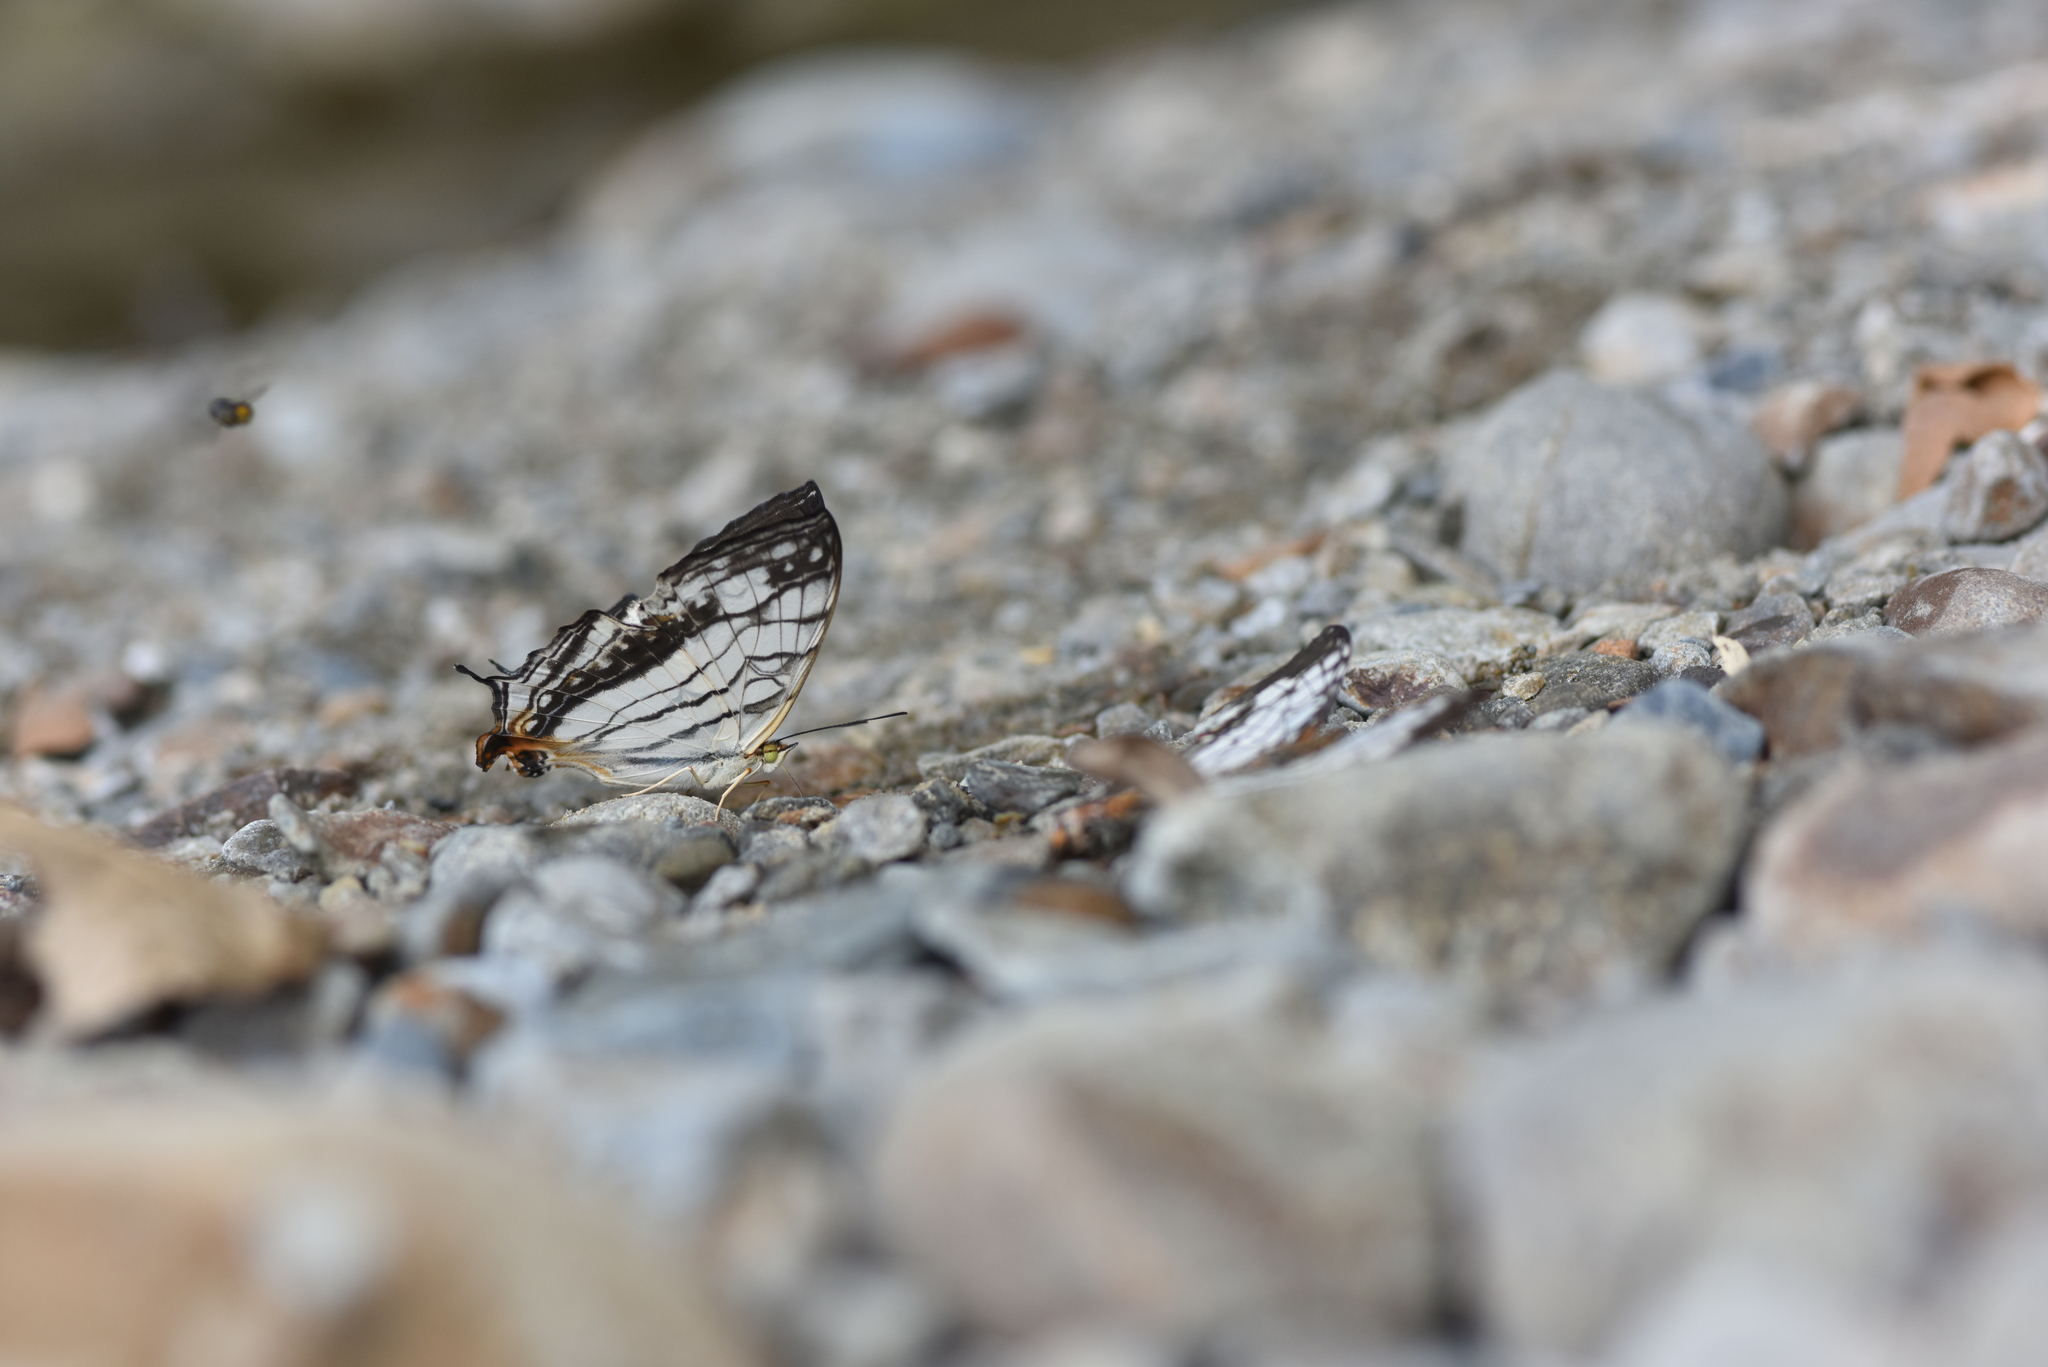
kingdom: Animalia
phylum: Arthropoda
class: Insecta
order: Lepidoptera
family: Nymphalidae
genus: Cyrestis
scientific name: Cyrestis thyodamas
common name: Common mapwing
